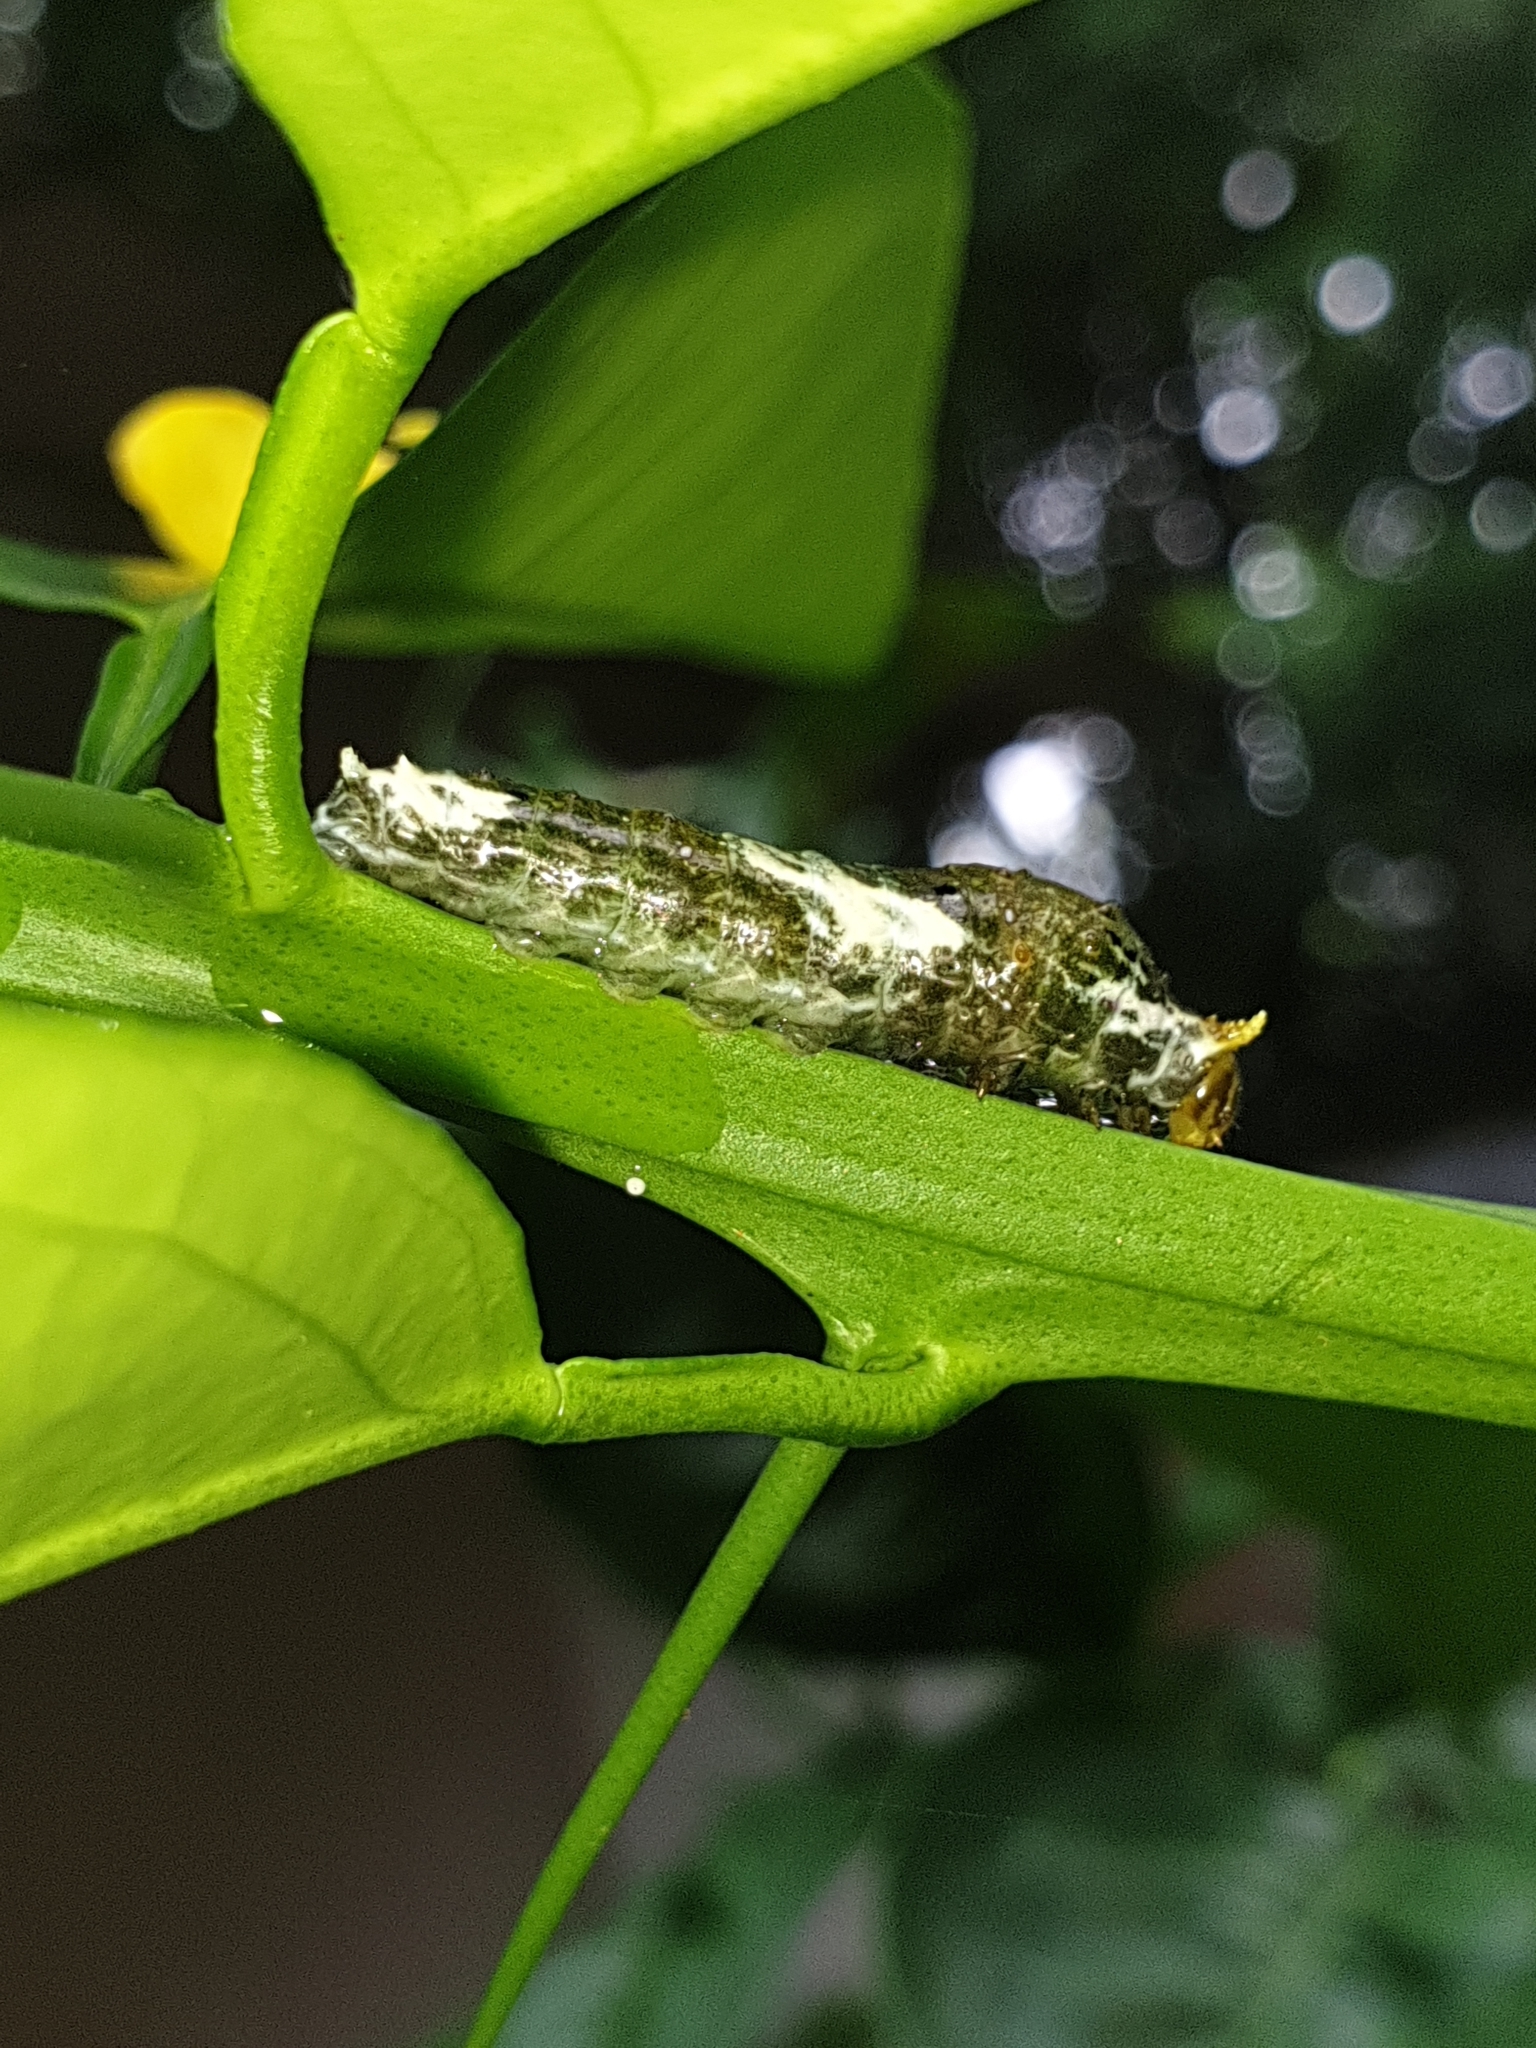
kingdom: Animalia
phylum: Arthropoda
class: Insecta
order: Lepidoptera
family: Papilionidae
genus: Papilio
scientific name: Papilio demoleus
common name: Lime butterfly
